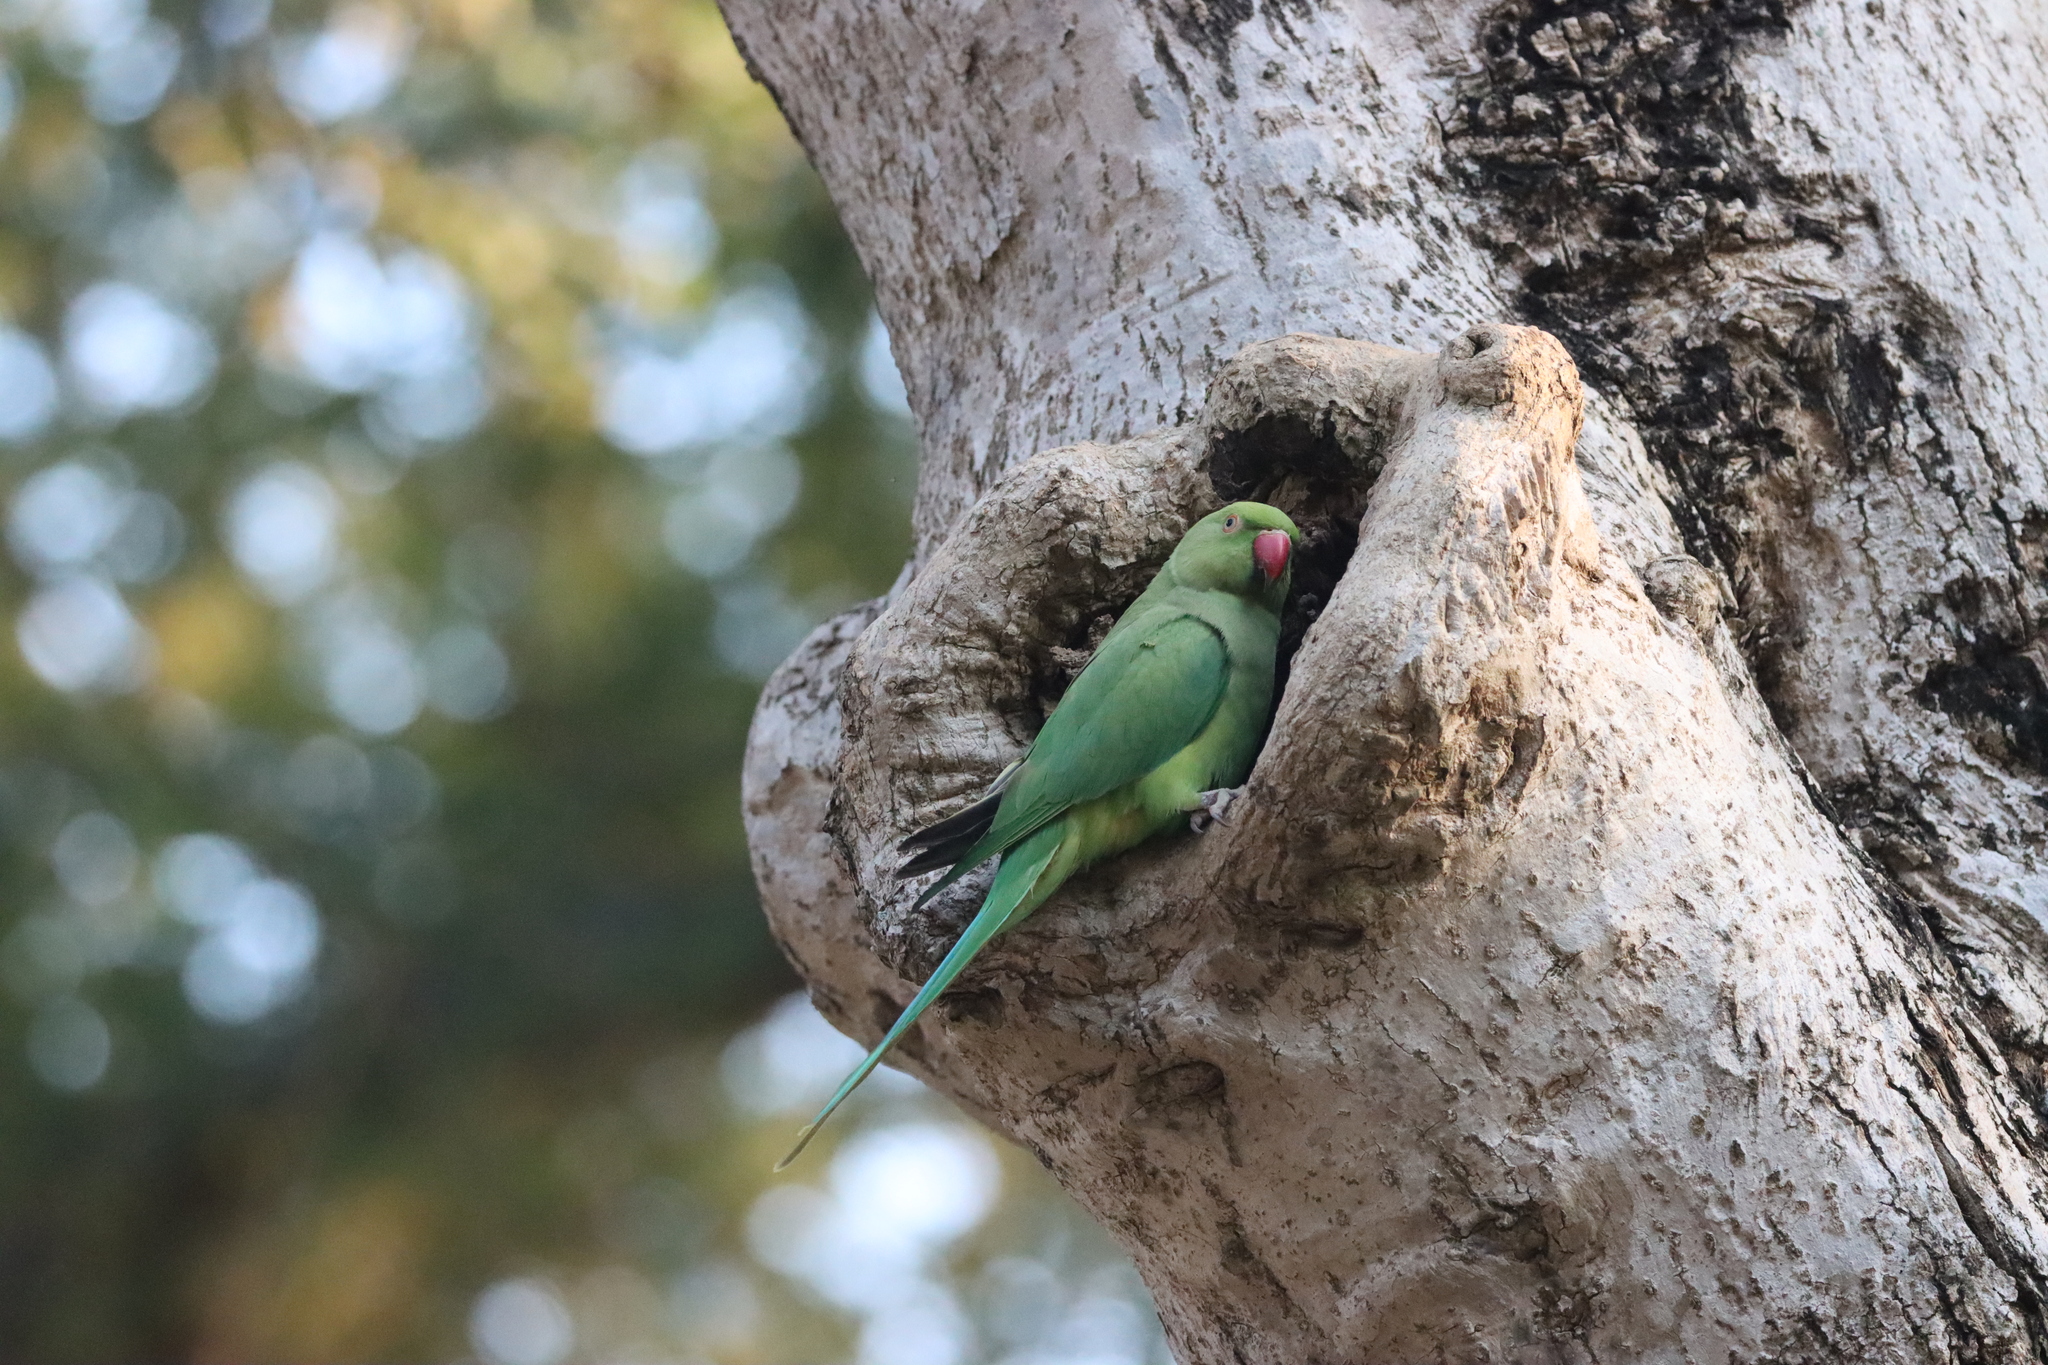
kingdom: Animalia
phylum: Chordata
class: Aves
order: Psittaciformes
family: Psittacidae
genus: Psittacula
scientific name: Psittacula krameri
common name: Rose-ringed parakeet
